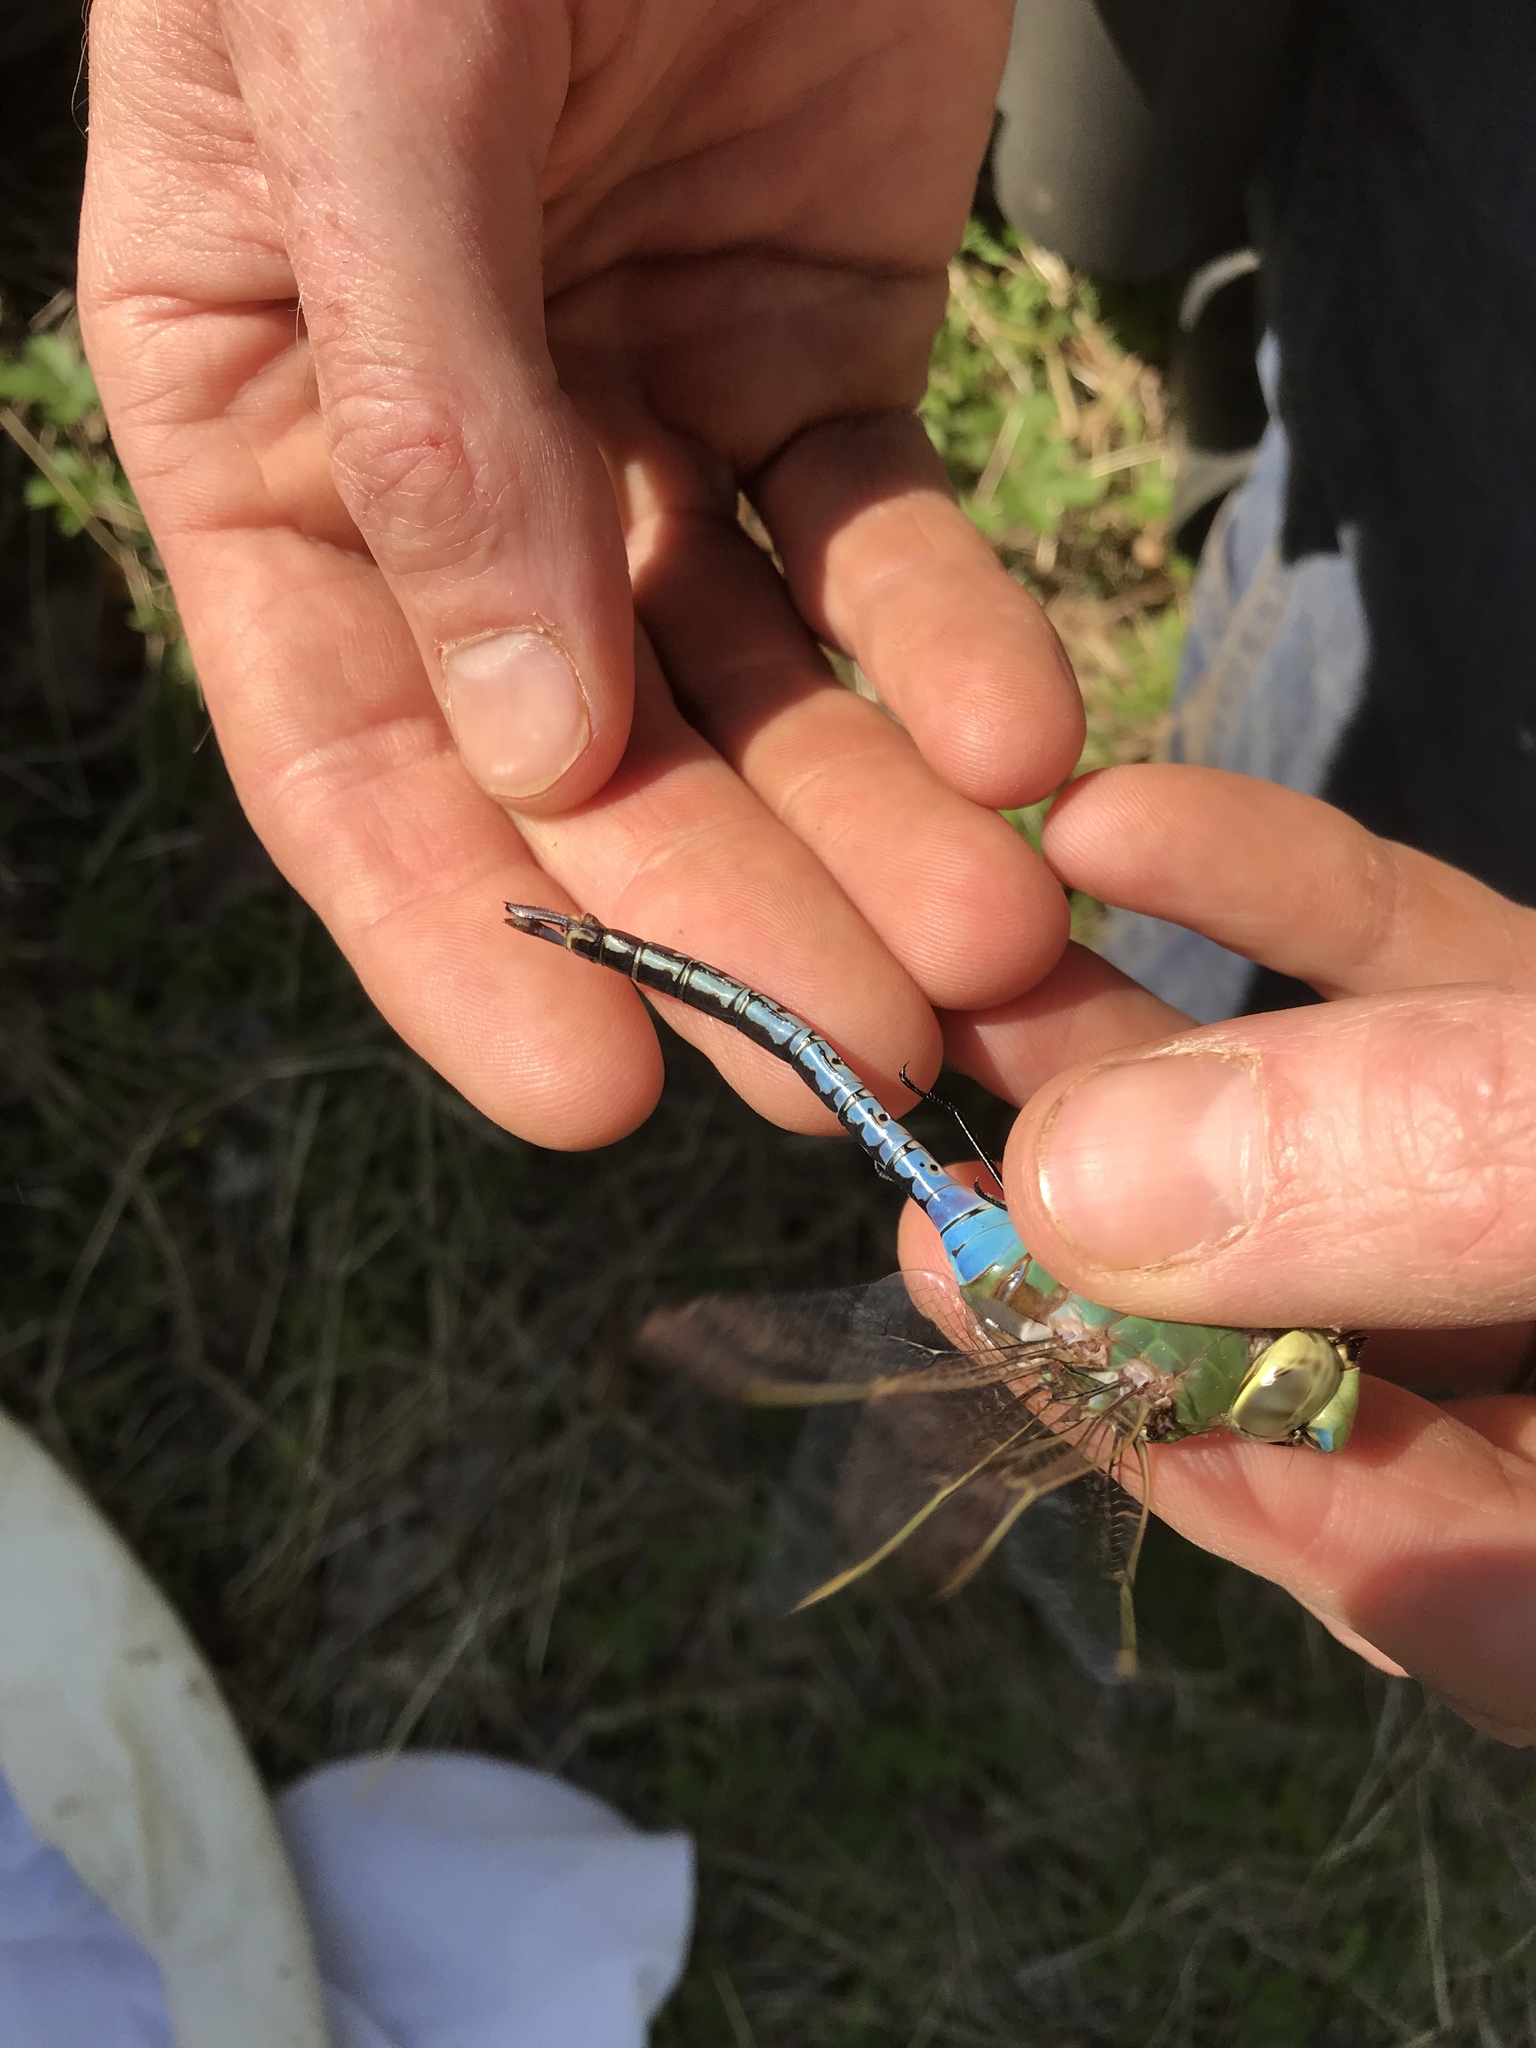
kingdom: Animalia
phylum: Arthropoda
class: Insecta
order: Odonata
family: Aeshnidae
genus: Anax
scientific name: Anax junius
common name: Common green darner
